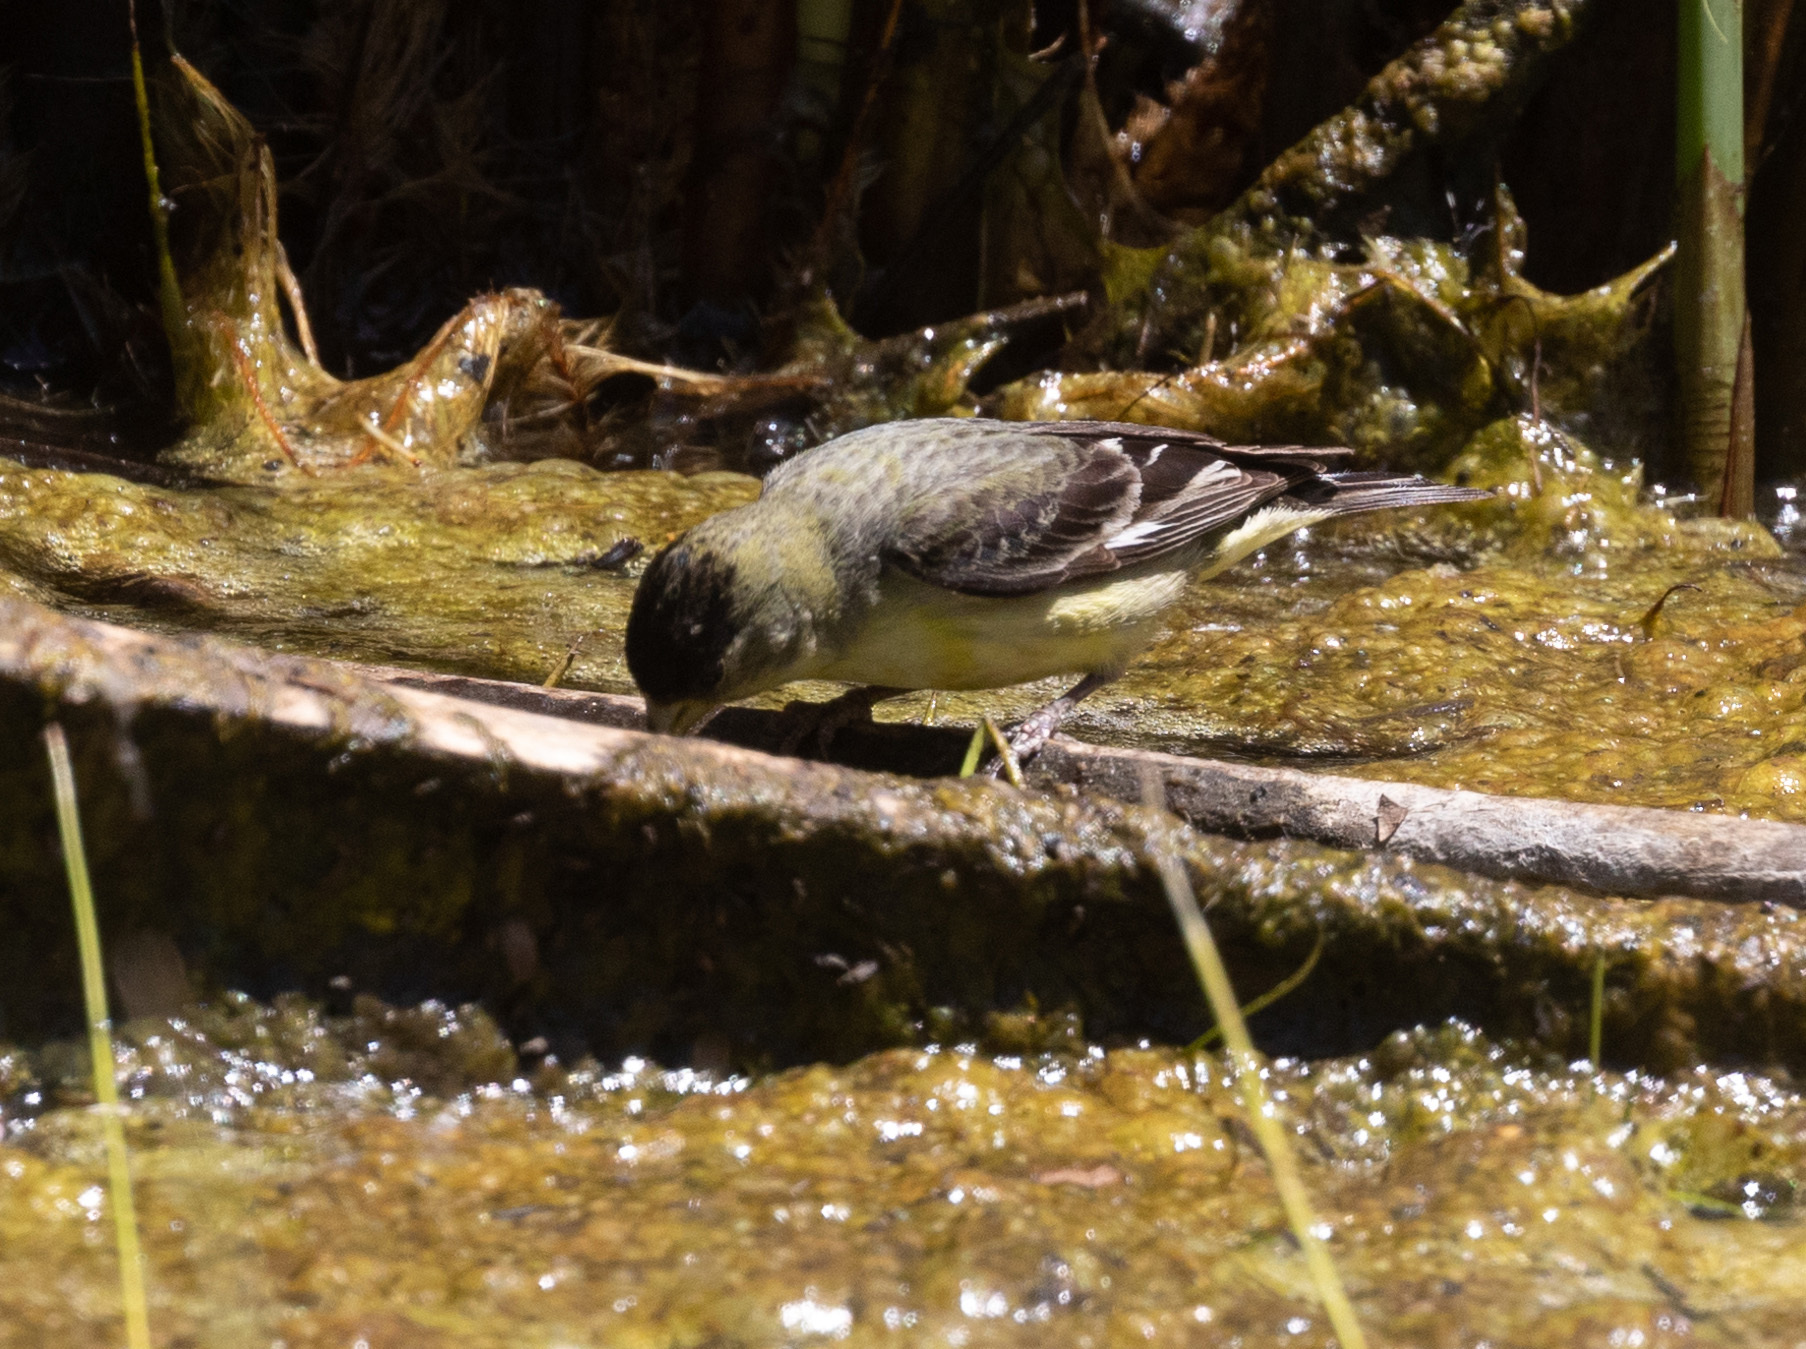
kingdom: Animalia
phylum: Chordata
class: Aves
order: Passeriformes
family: Fringillidae
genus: Spinus
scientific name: Spinus psaltria
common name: Lesser goldfinch
